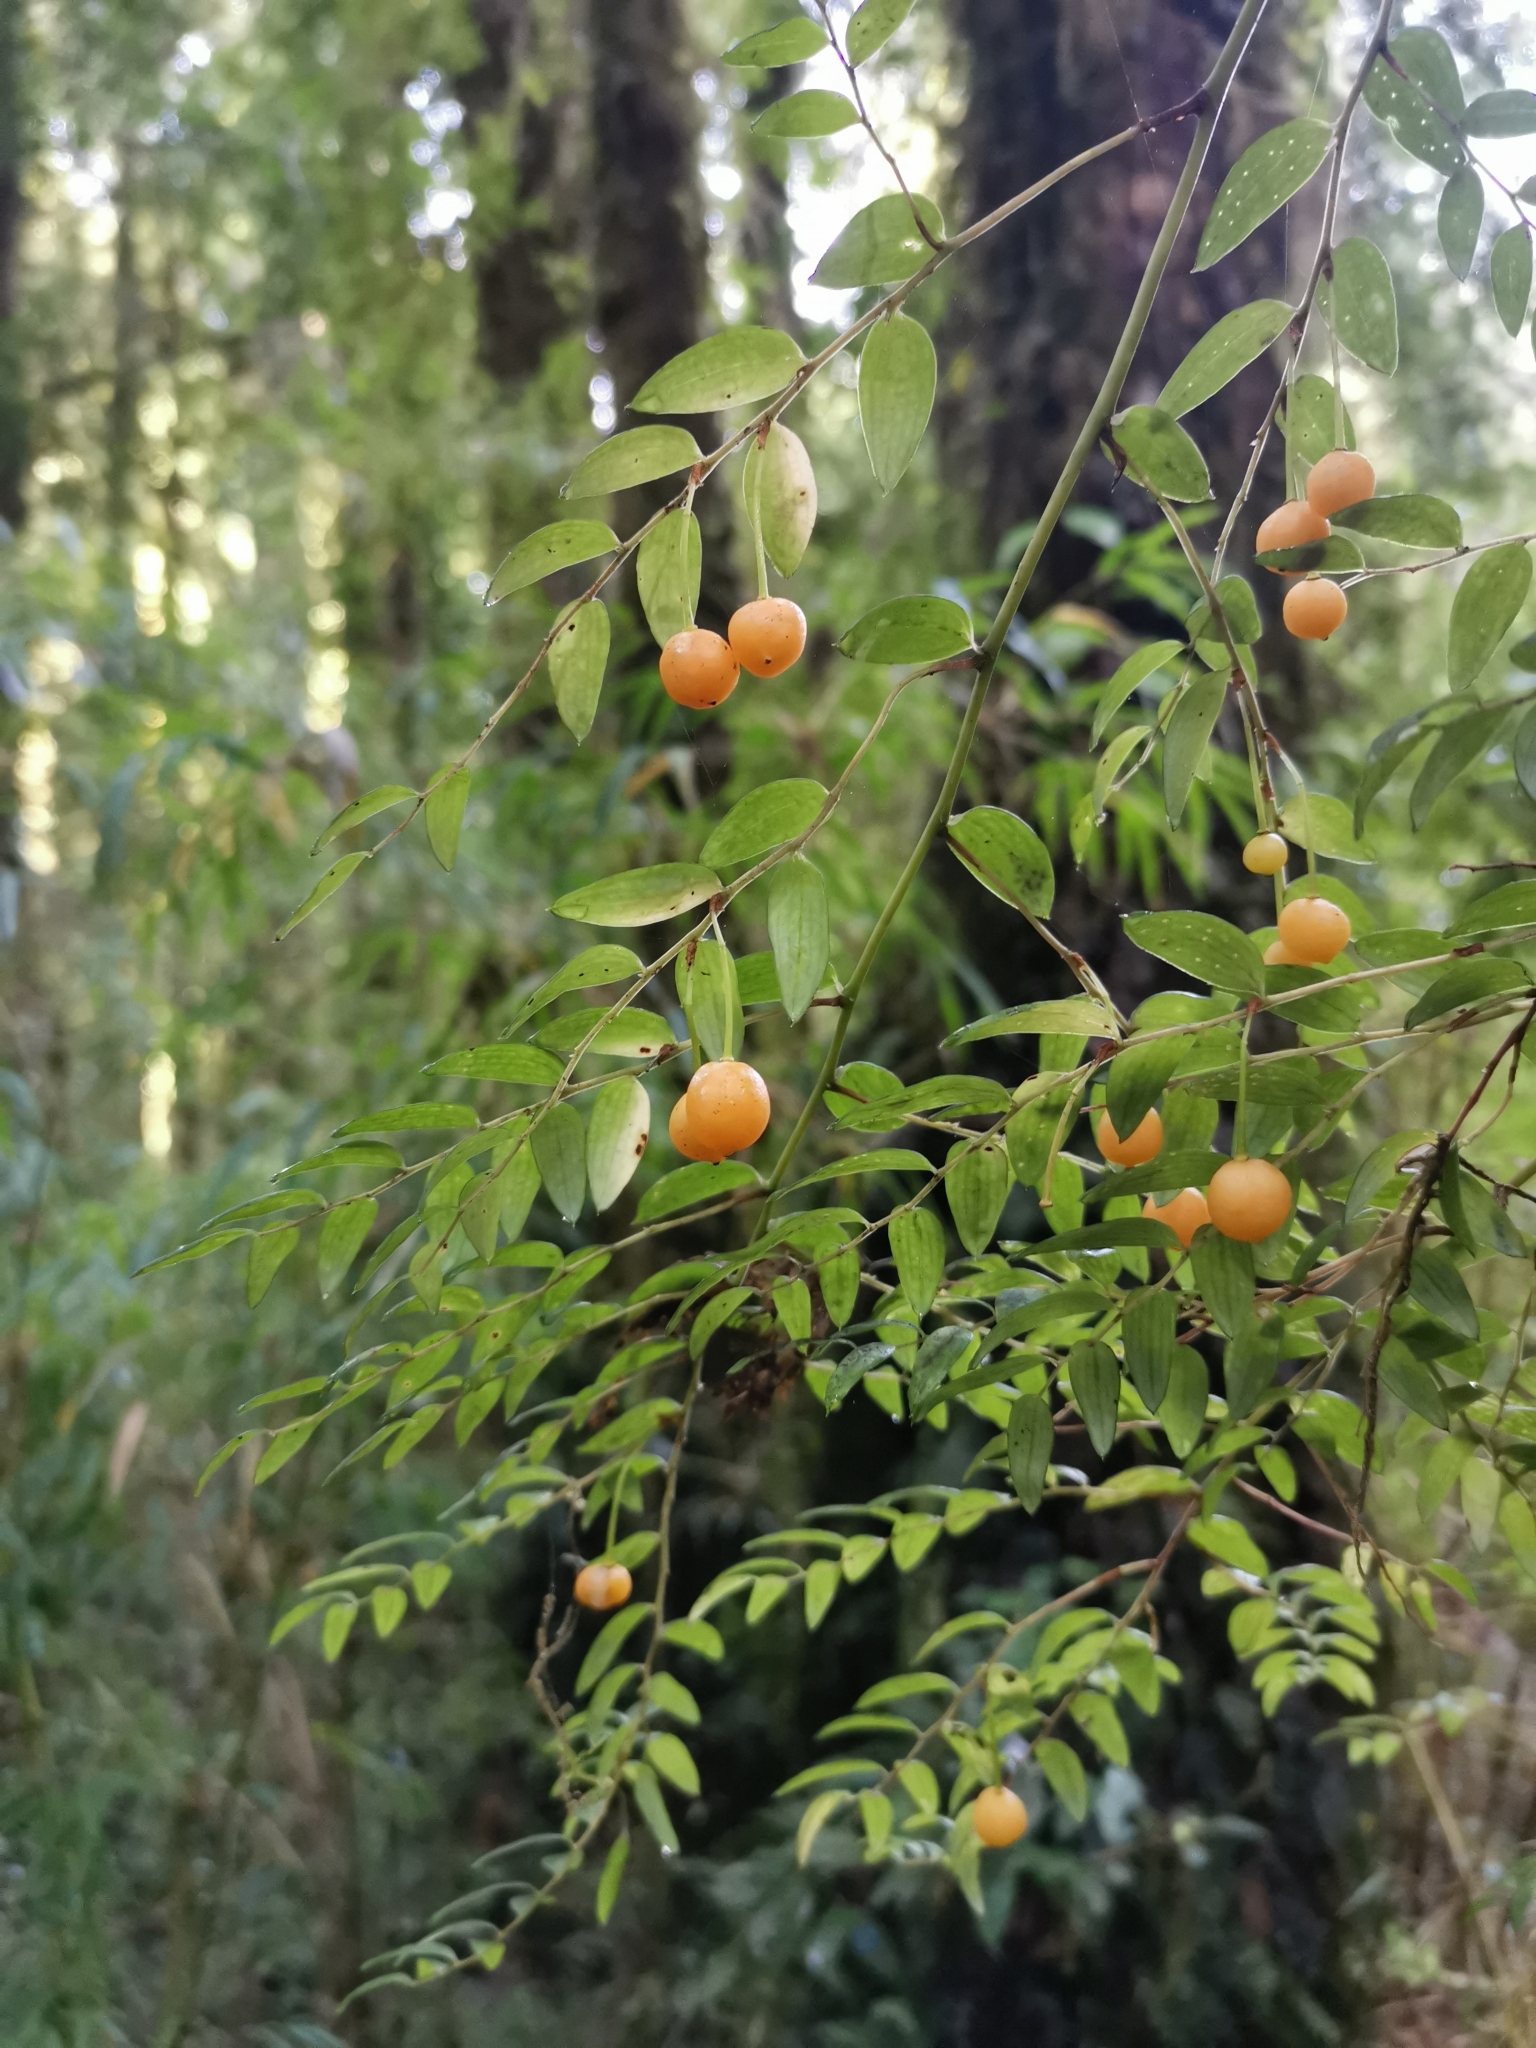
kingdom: Plantae
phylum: Tracheophyta
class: Liliopsida
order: Liliales
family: Alstroemeriaceae
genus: Luzuriaga
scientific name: Luzuriaga polyphylla
